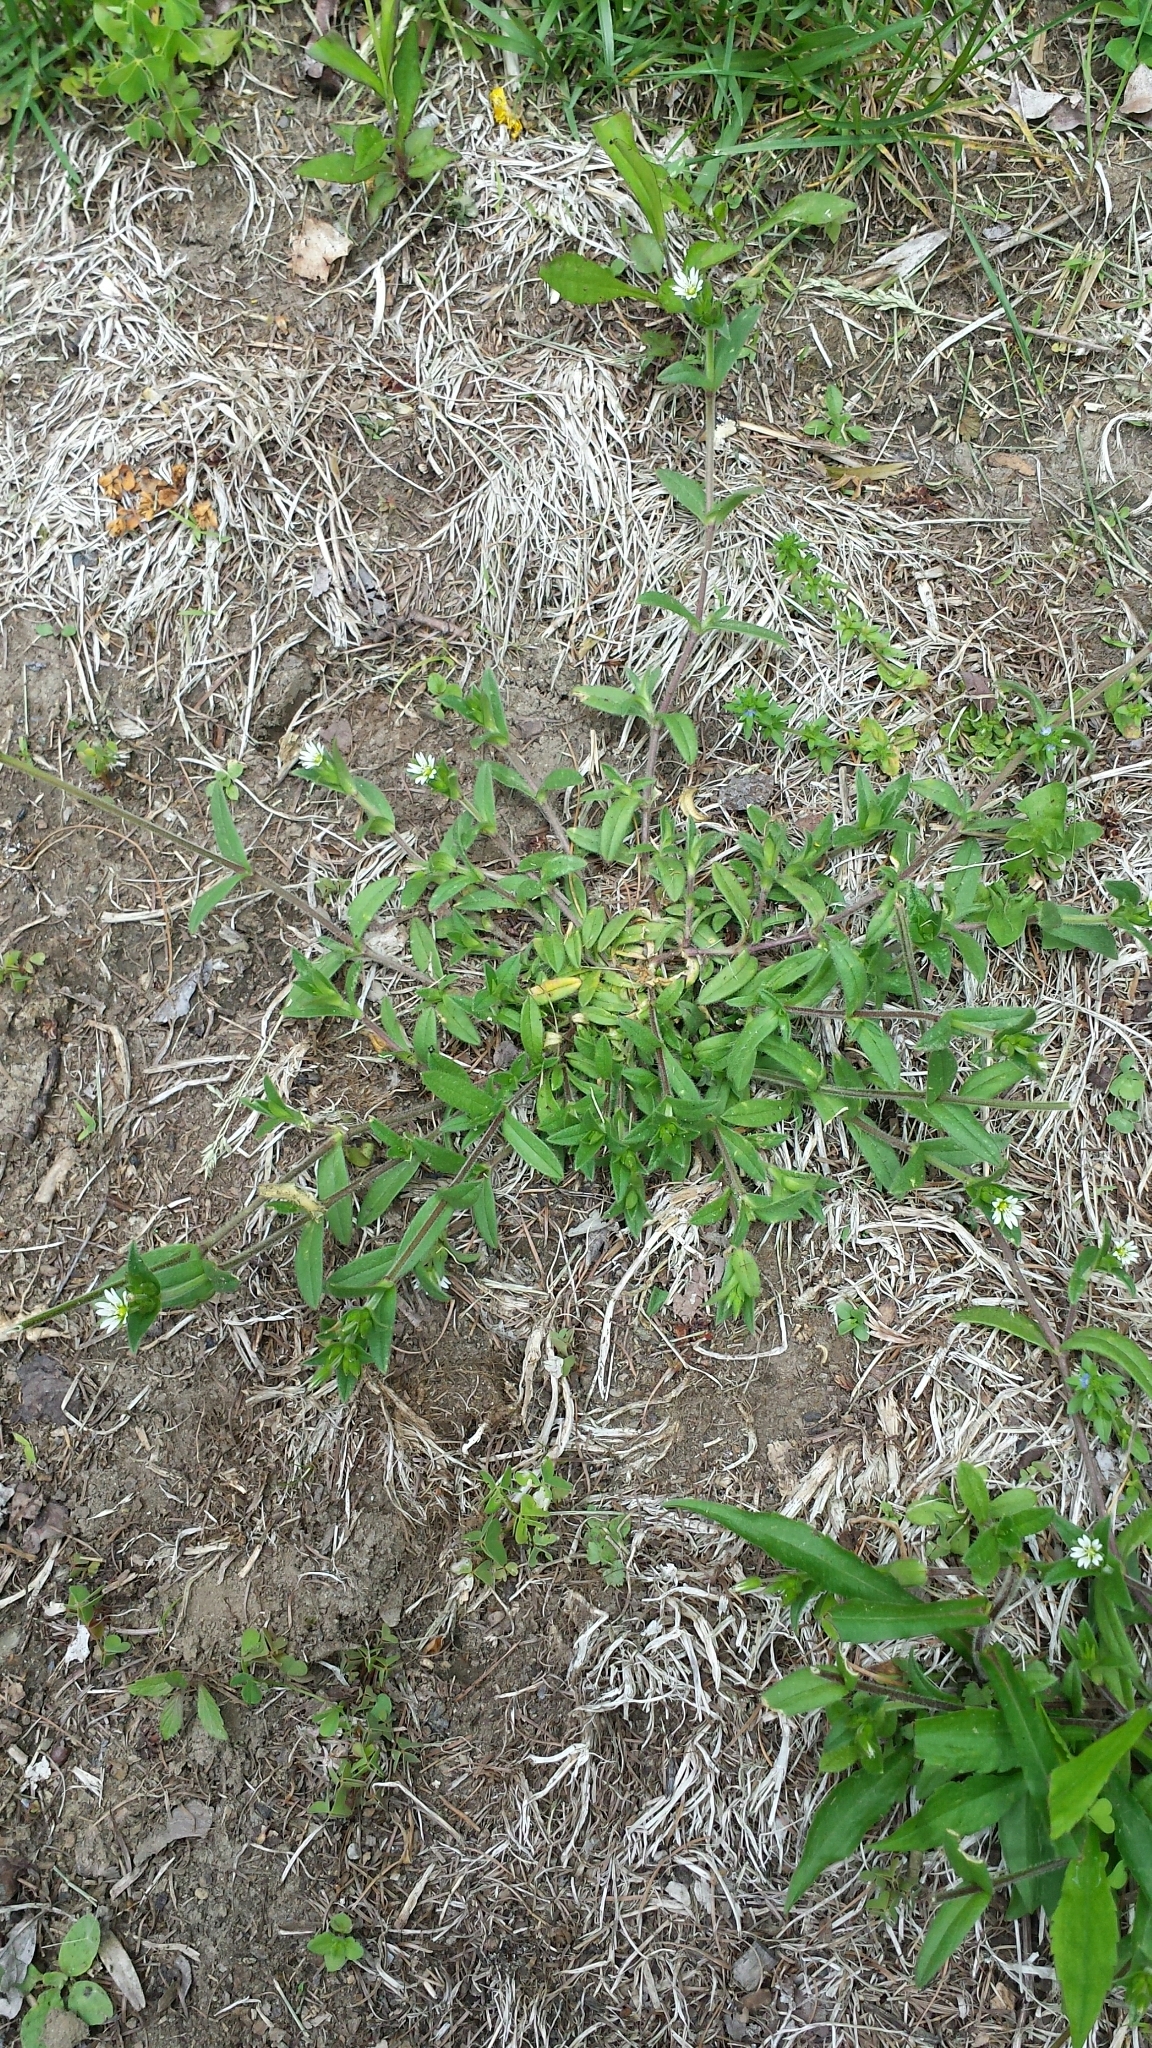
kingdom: Plantae
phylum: Tracheophyta
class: Magnoliopsida
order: Caryophyllales
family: Caryophyllaceae
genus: Cerastium
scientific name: Cerastium fontanum
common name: Common mouse-ear
